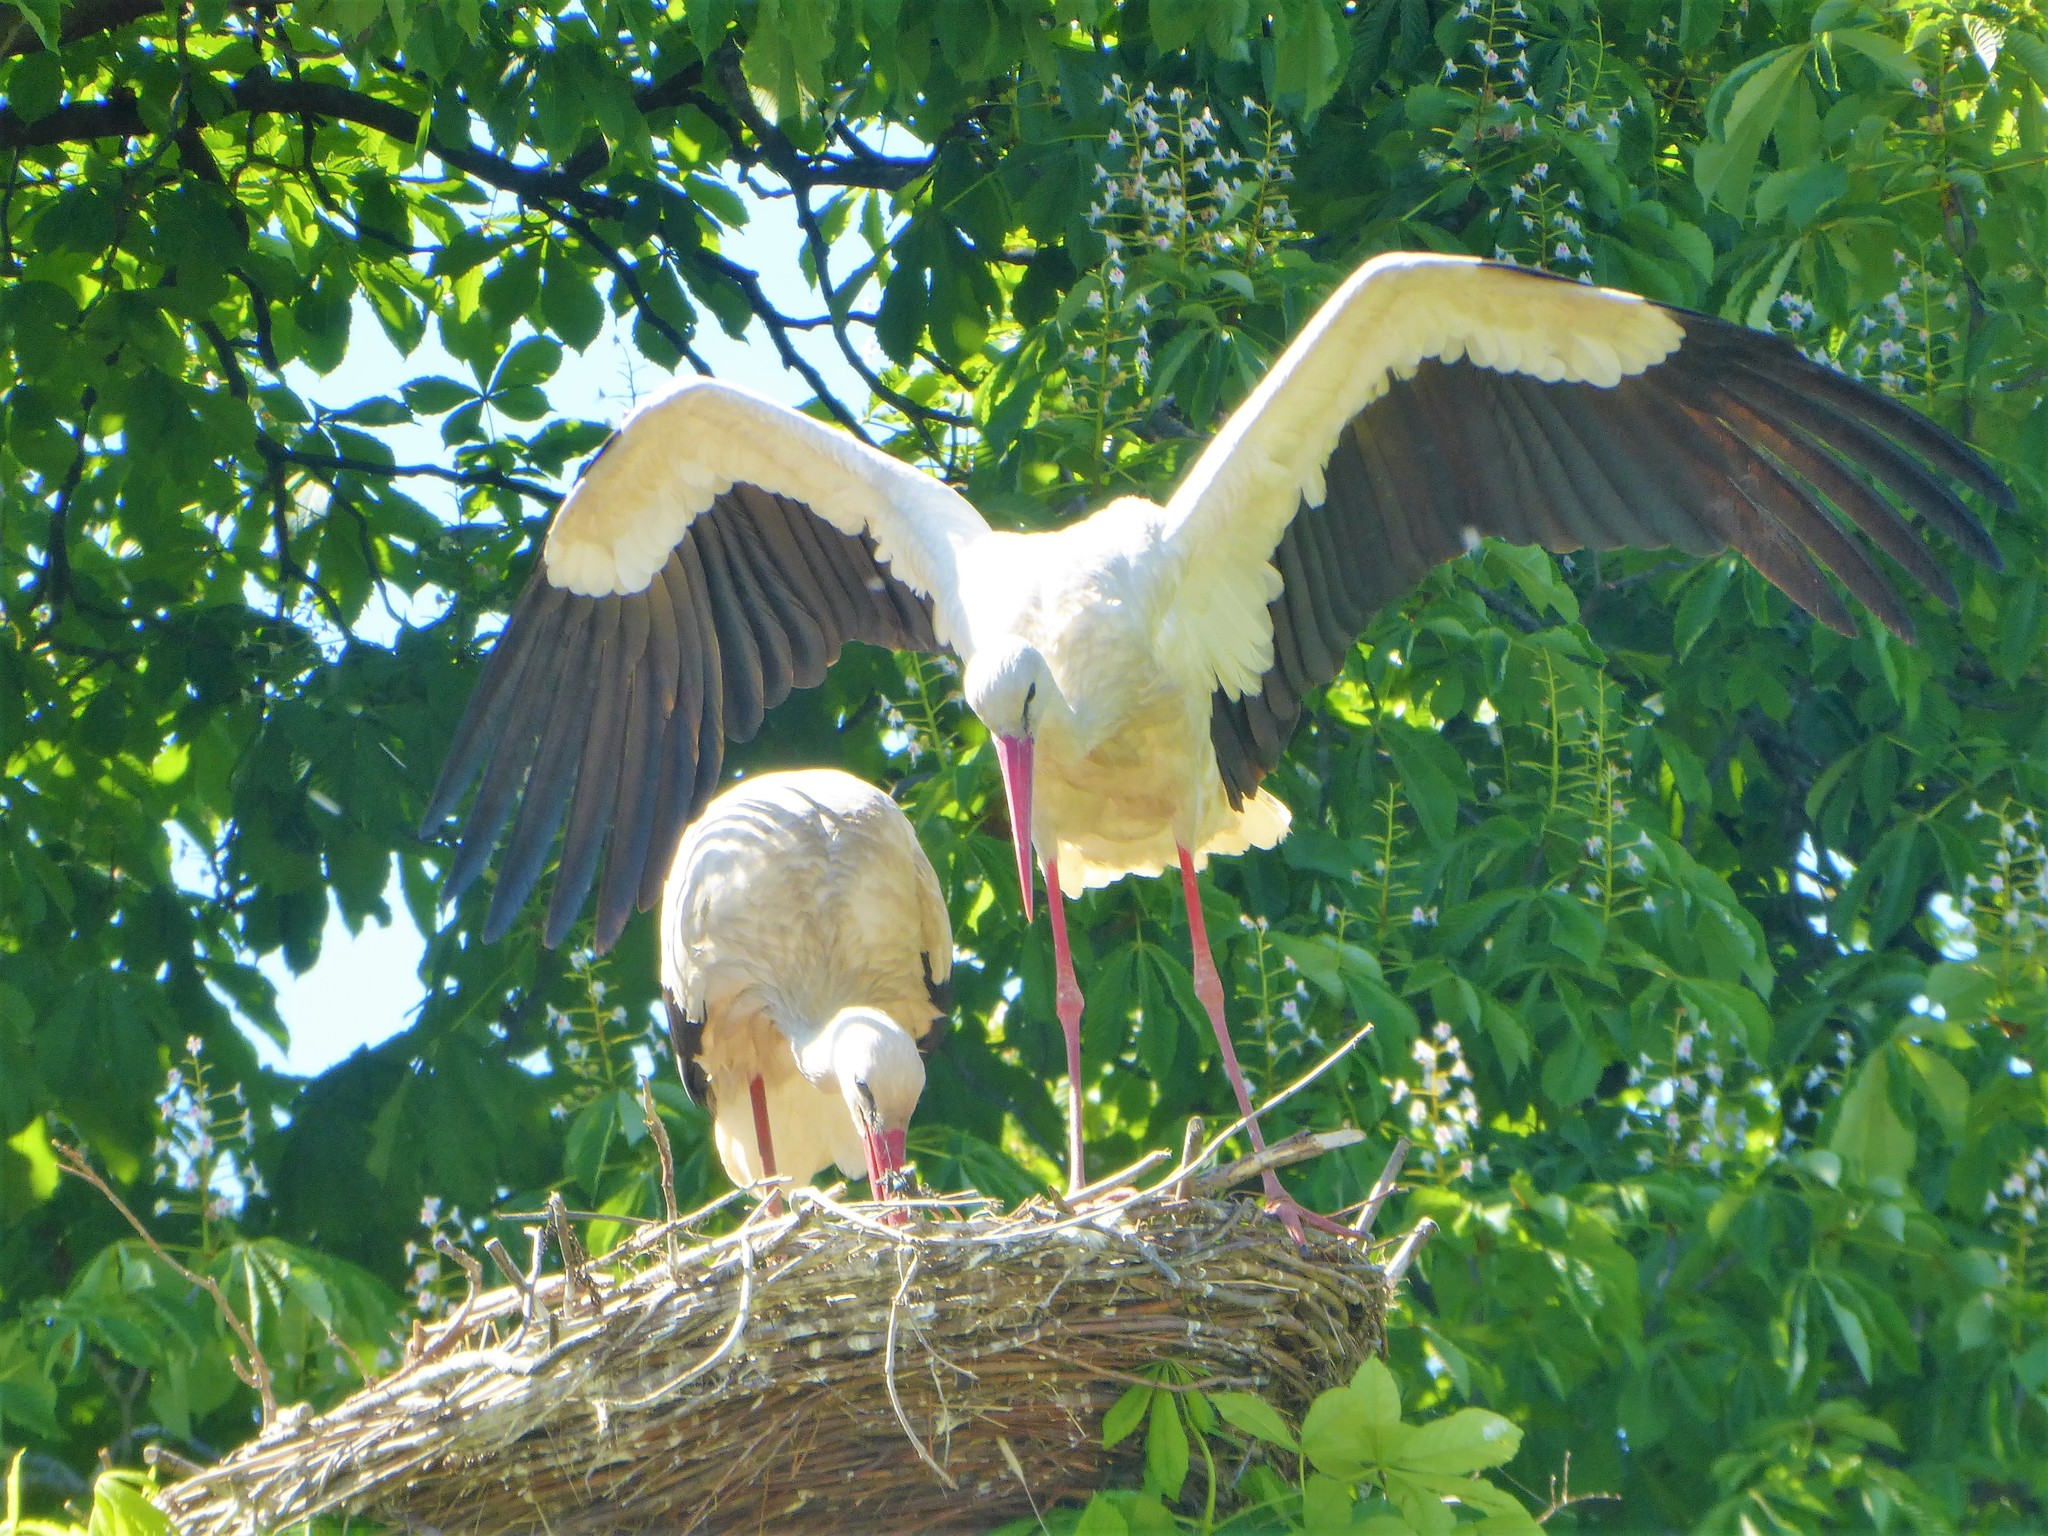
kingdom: Animalia
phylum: Chordata
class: Aves
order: Ciconiiformes
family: Ciconiidae
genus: Ciconia
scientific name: Ciconia ciconia
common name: White stork
